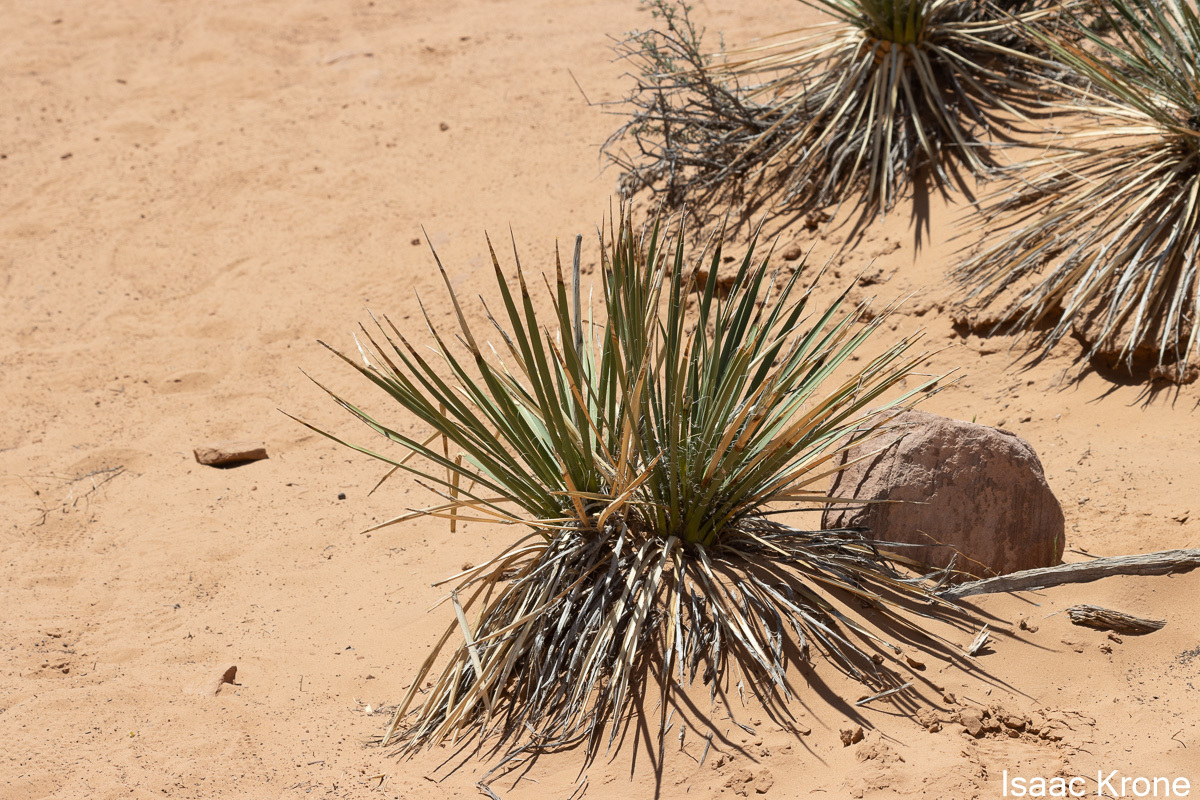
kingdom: Plantae
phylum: Tracheophyta
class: Liliopsida
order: Asparagales
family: Asparagaceae
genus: Yucca
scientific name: Yucca angustissima
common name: Narrowleaf yucca
